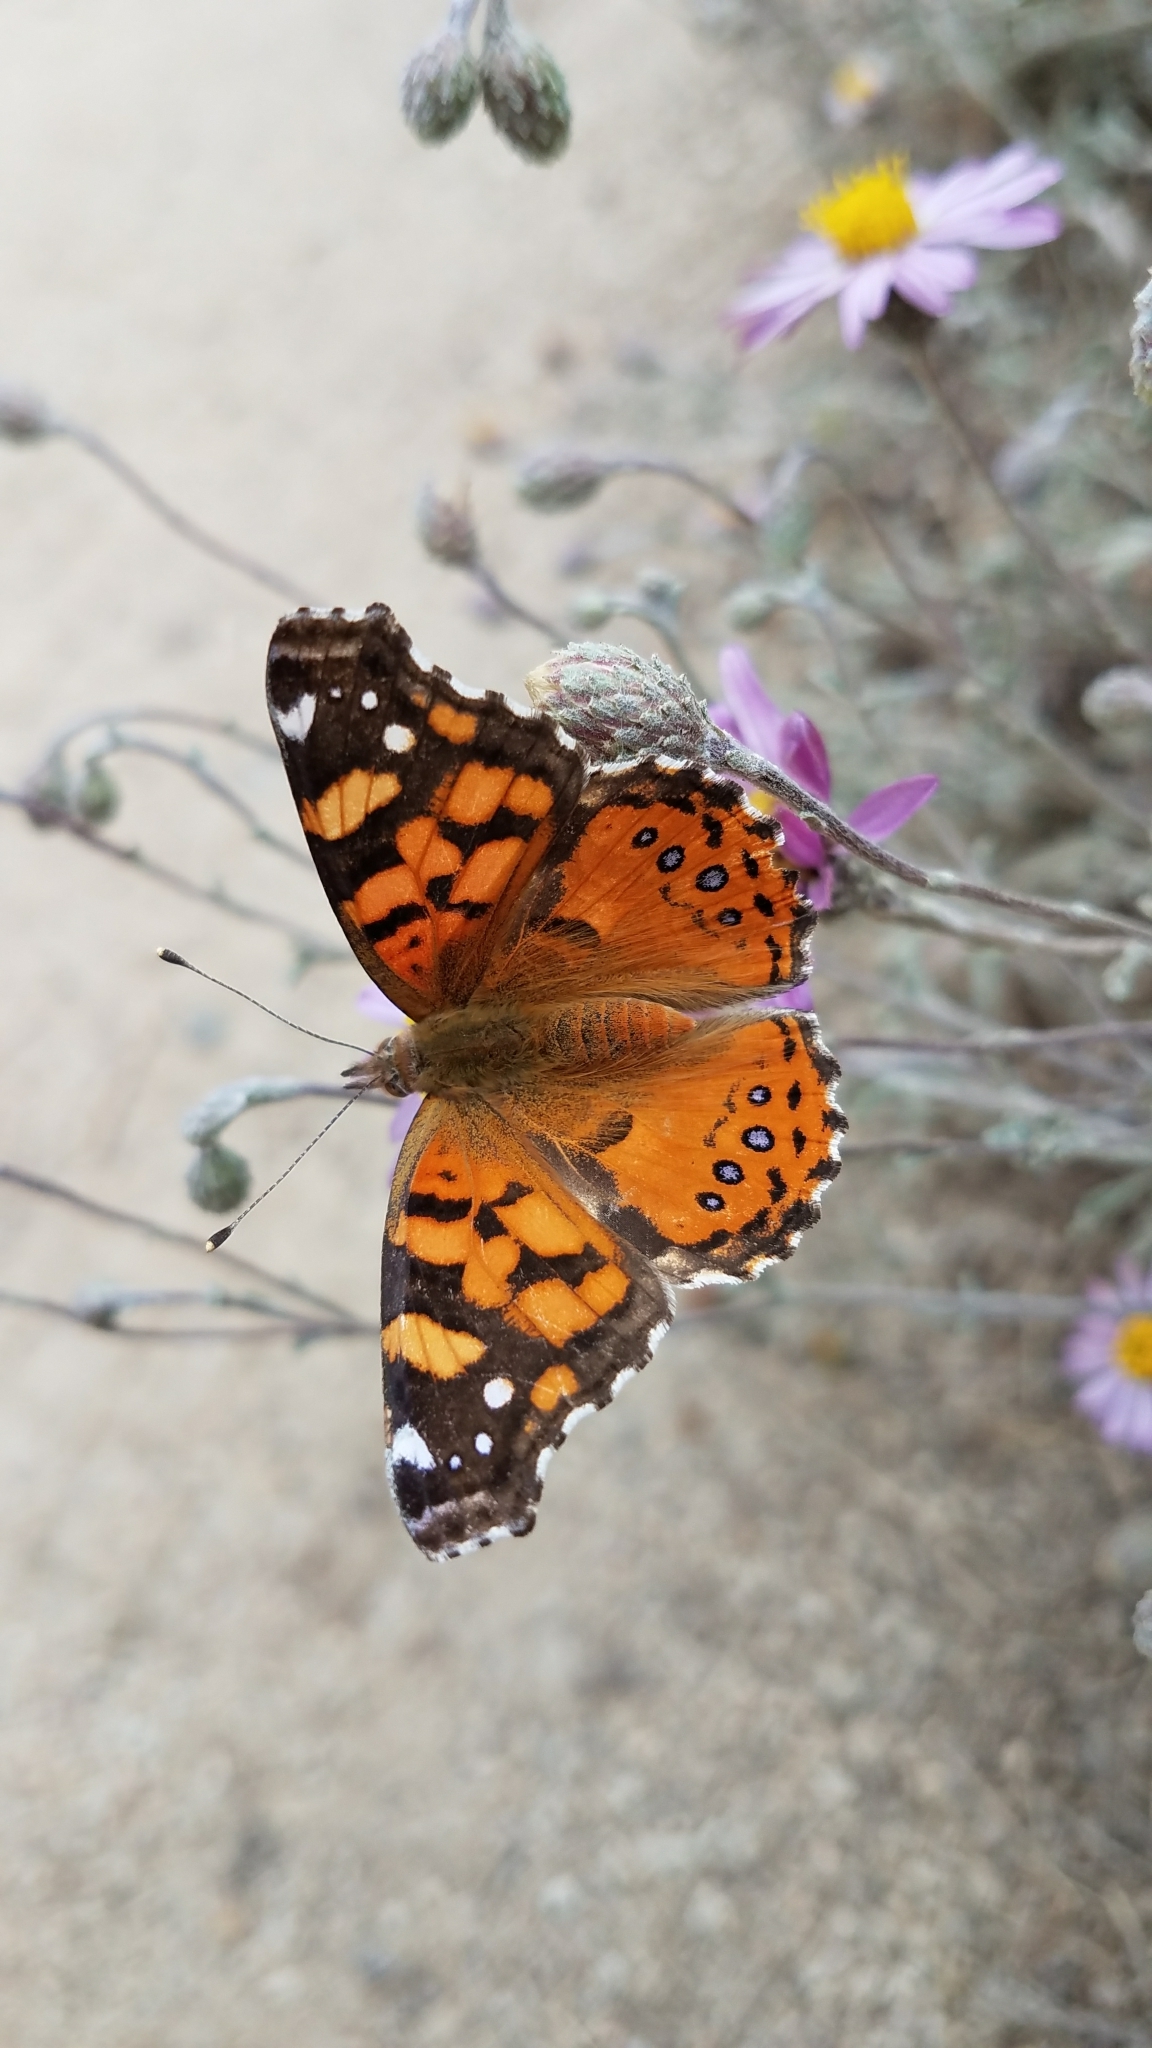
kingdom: Animalia
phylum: Arthropoda
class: Insecta
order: Lepidoptera
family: Nymphalidae
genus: Vanessa
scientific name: Vanessa annabella
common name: West coast lady
